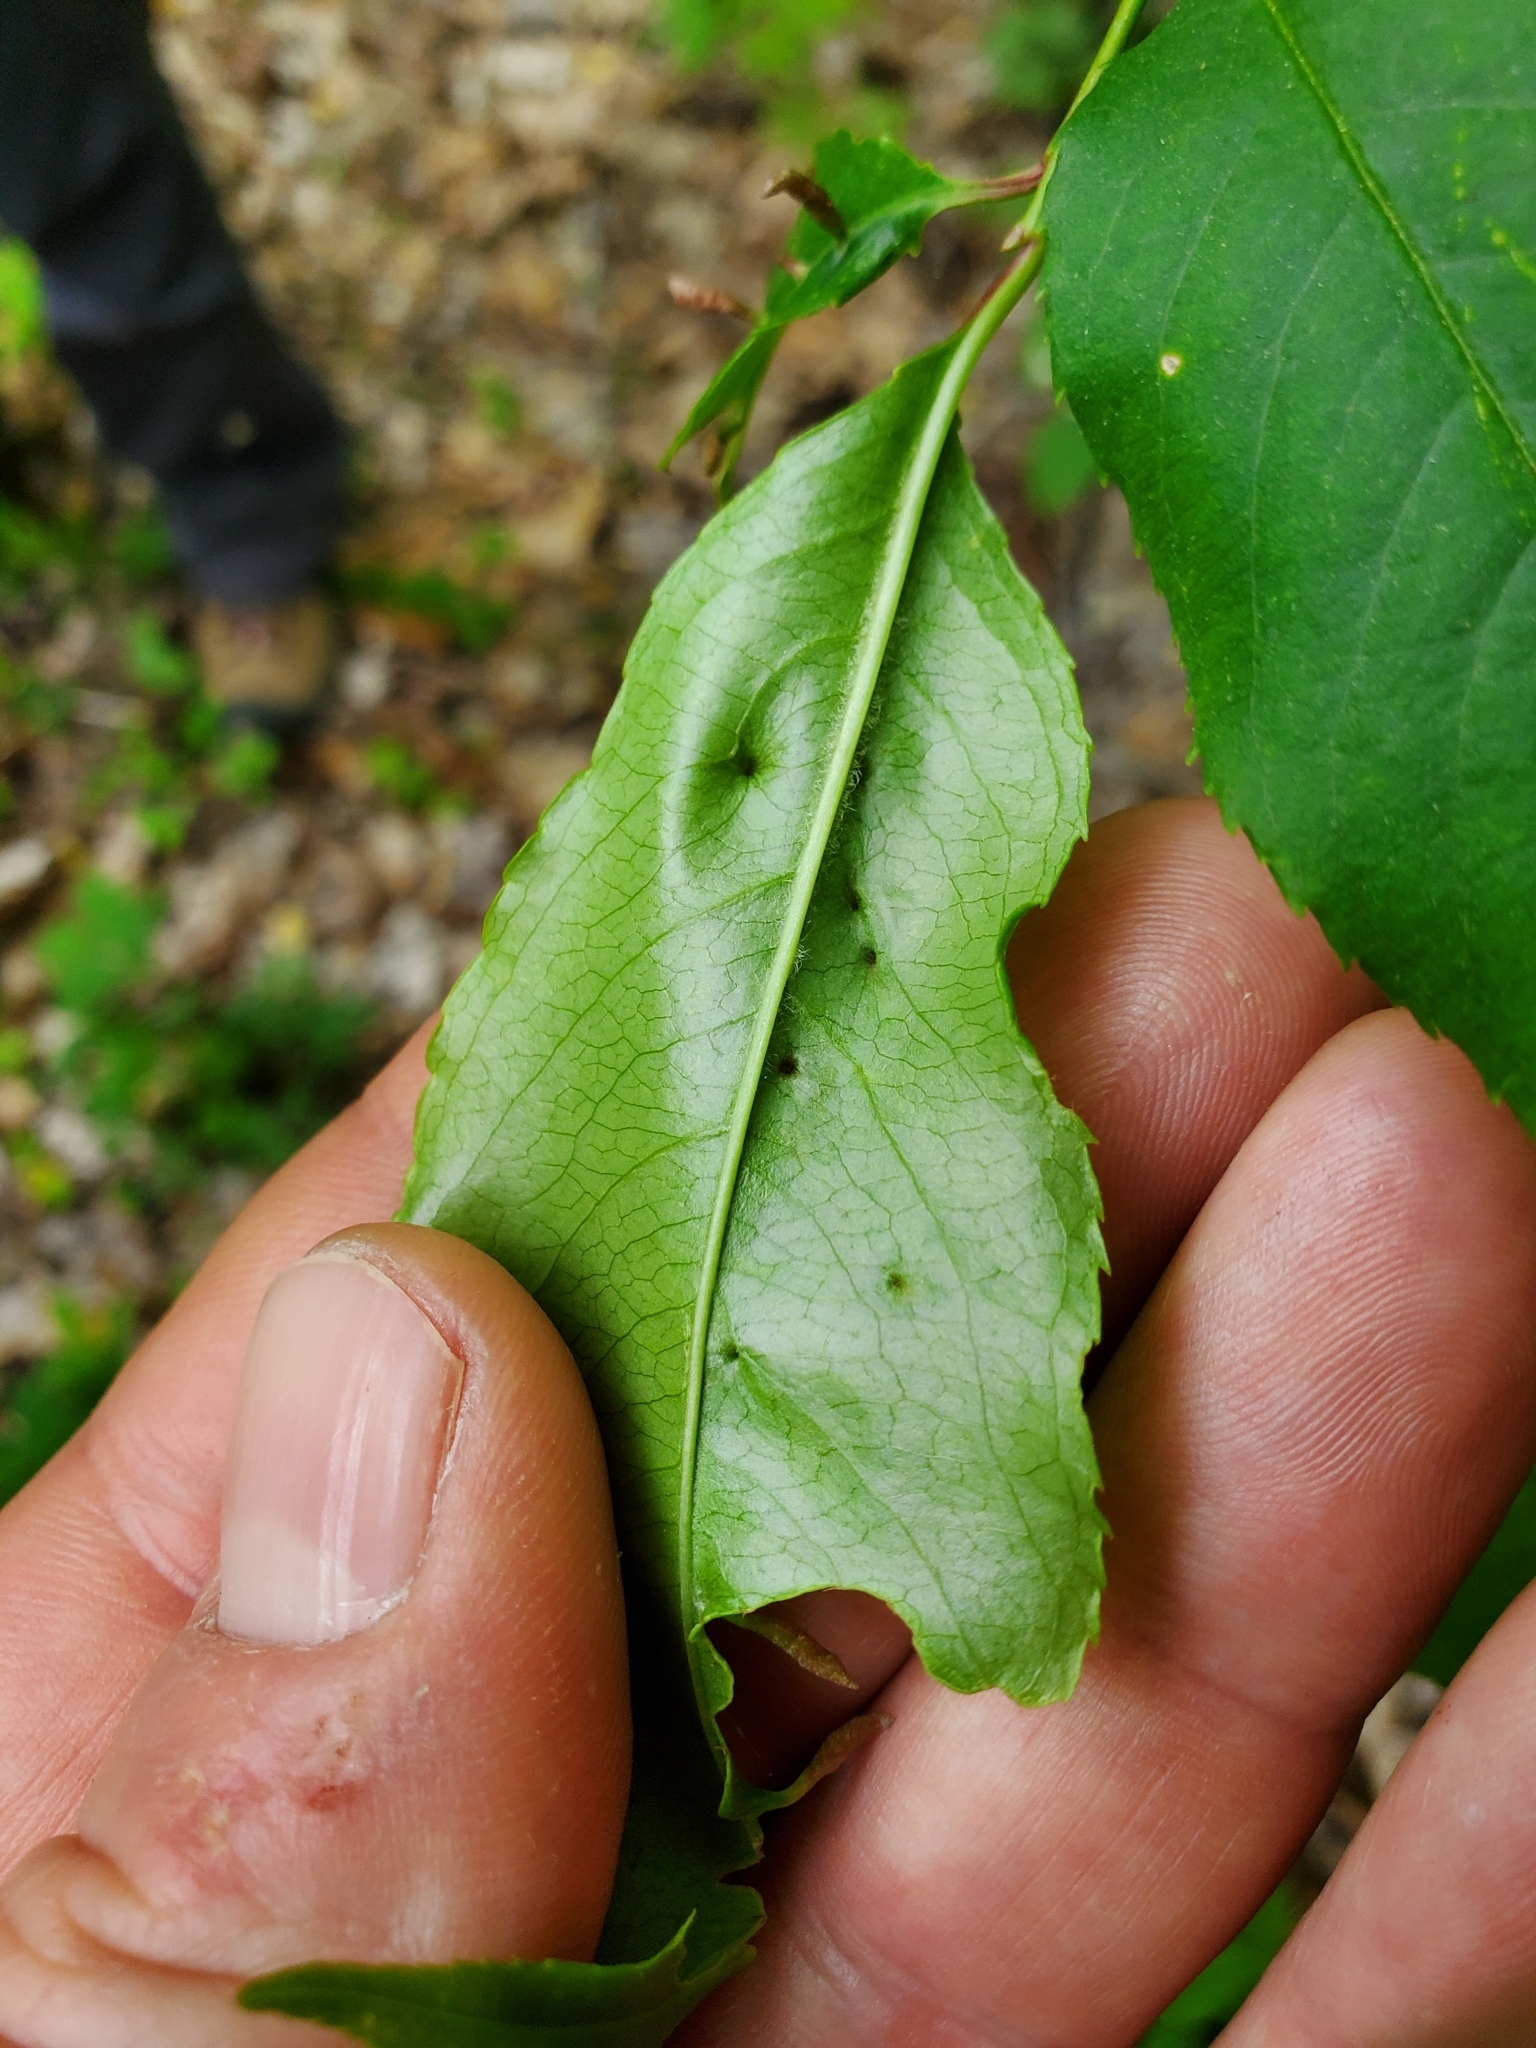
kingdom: Animalia
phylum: Arthropoda
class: Arachnida
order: Trombidiformes
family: Eriophyidae
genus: Eriophyes
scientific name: Eriophyes
